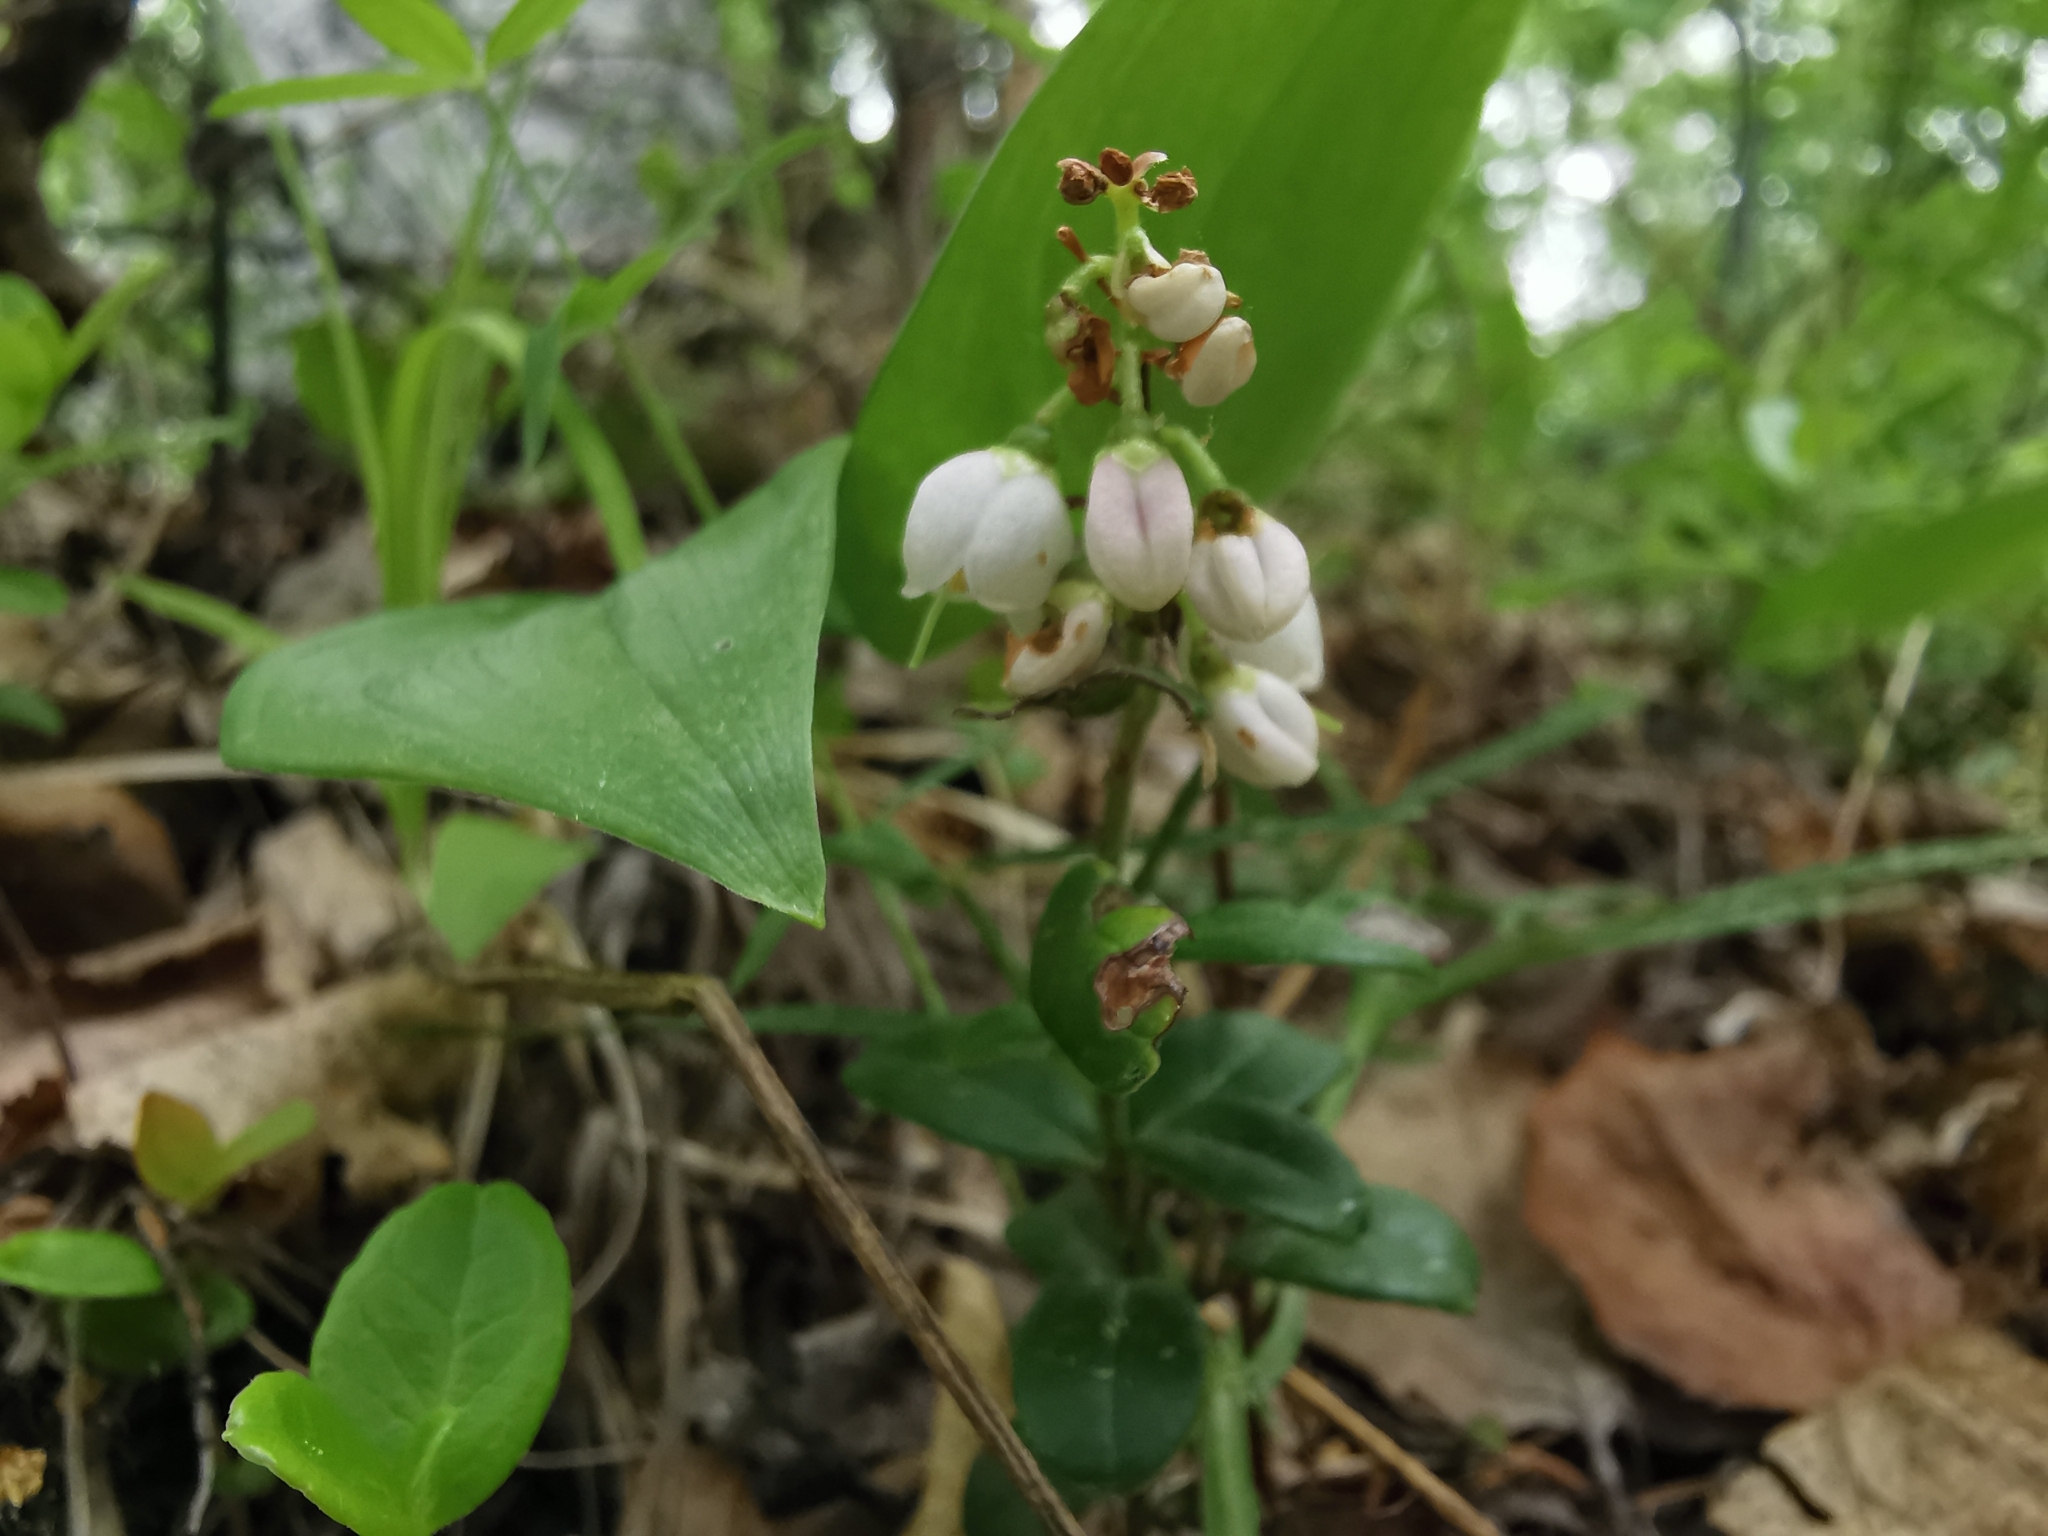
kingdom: Plantae
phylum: Tracheophyta
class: Magnoliopsida
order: Ericales
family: Ericaceae
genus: Vaccinium
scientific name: Vaccinium vitis-idaea
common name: Cowberry
